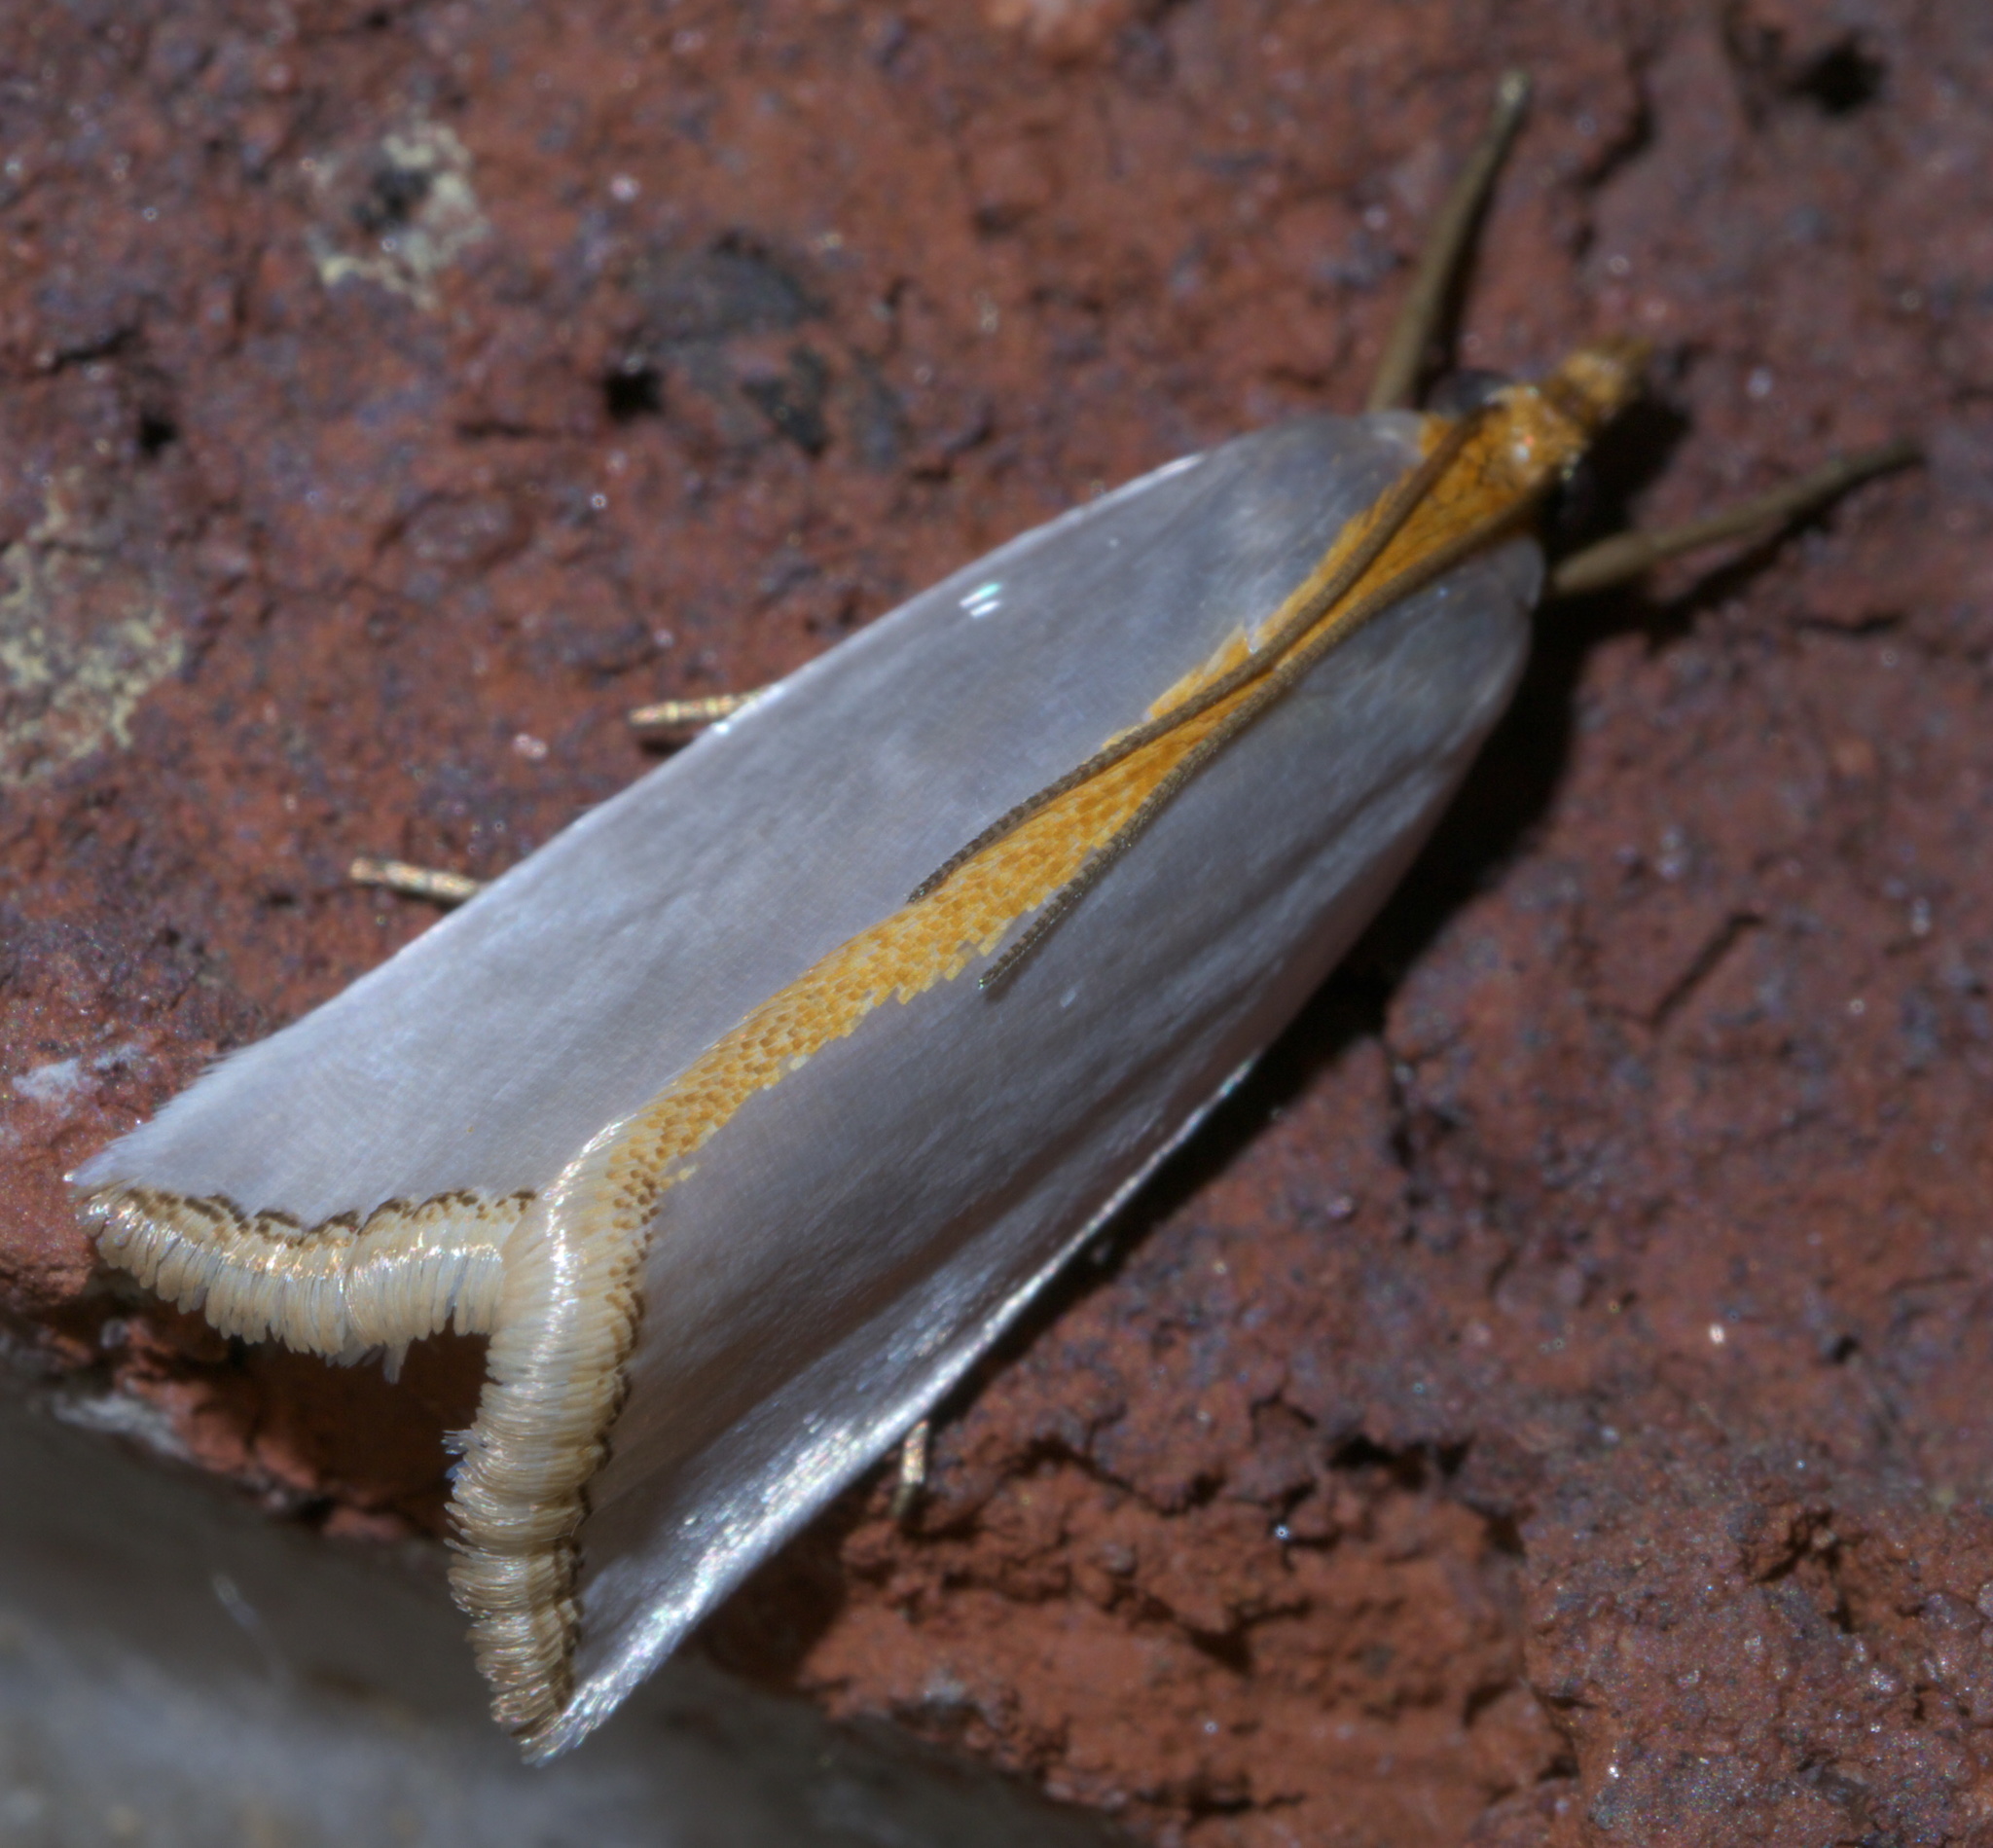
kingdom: Animalia
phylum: Arthropoda
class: Insecta
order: Lepidoptera
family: Crambidae
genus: Argyria
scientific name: Argyria
